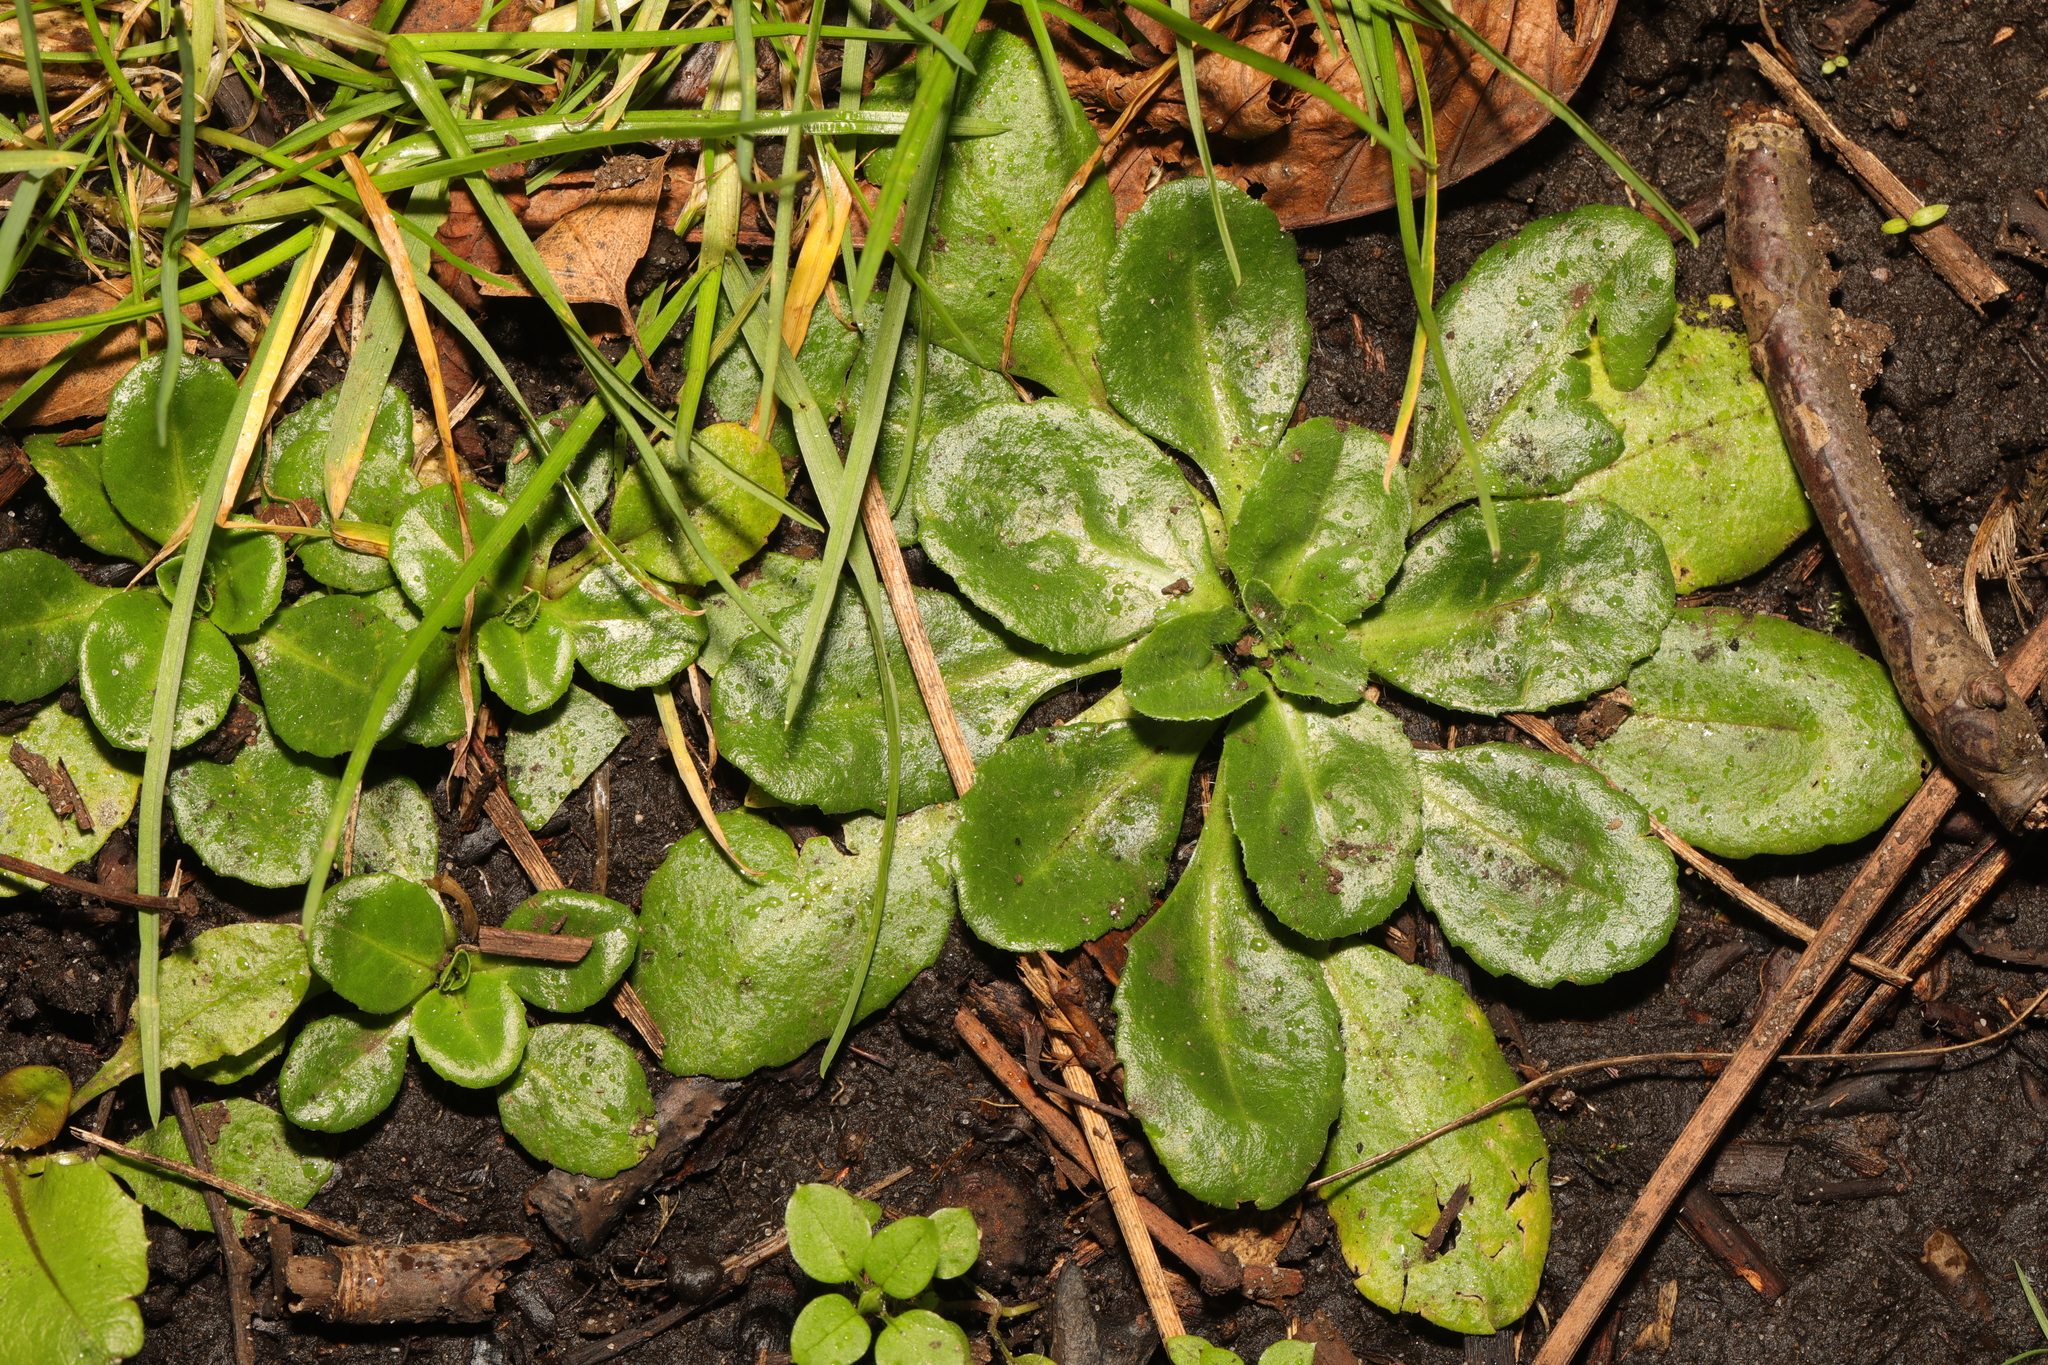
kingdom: Plantae
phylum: Tracheophyta
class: Magnoliopsida
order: Asterales
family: Asteraceae
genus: Bellis
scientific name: Bellis perennis
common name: Lawndaisy
